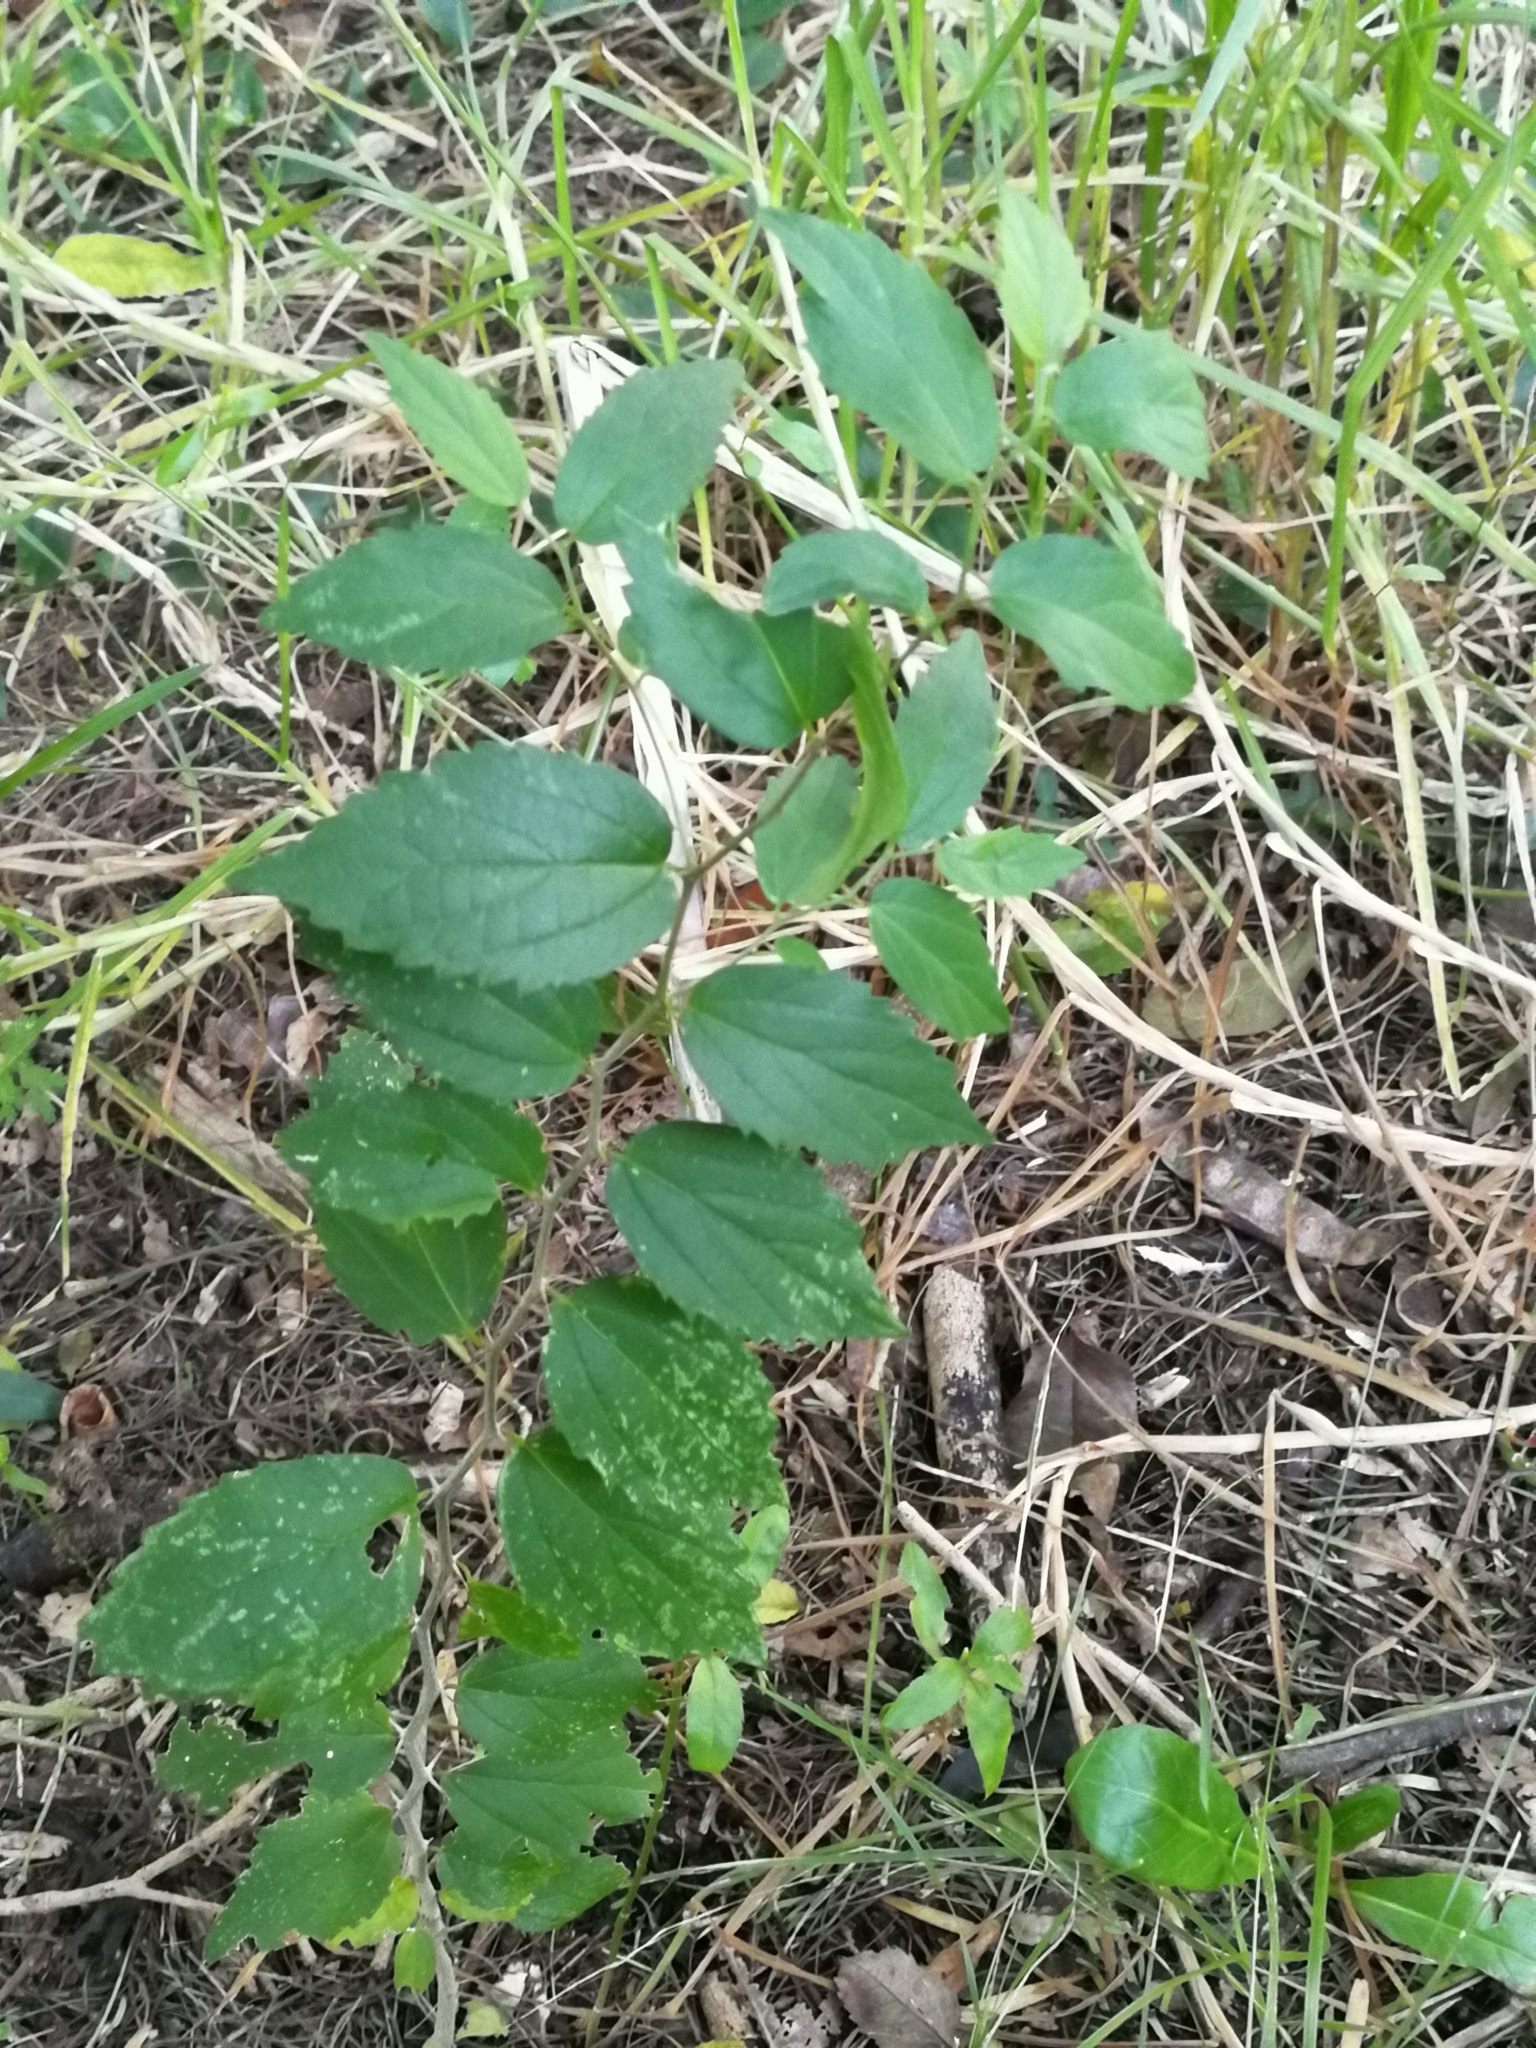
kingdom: Plantae
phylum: Tracheophyta
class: Magnoliopsida
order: Rosales
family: Cannabaceae
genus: Celtis
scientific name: Celtis tala
